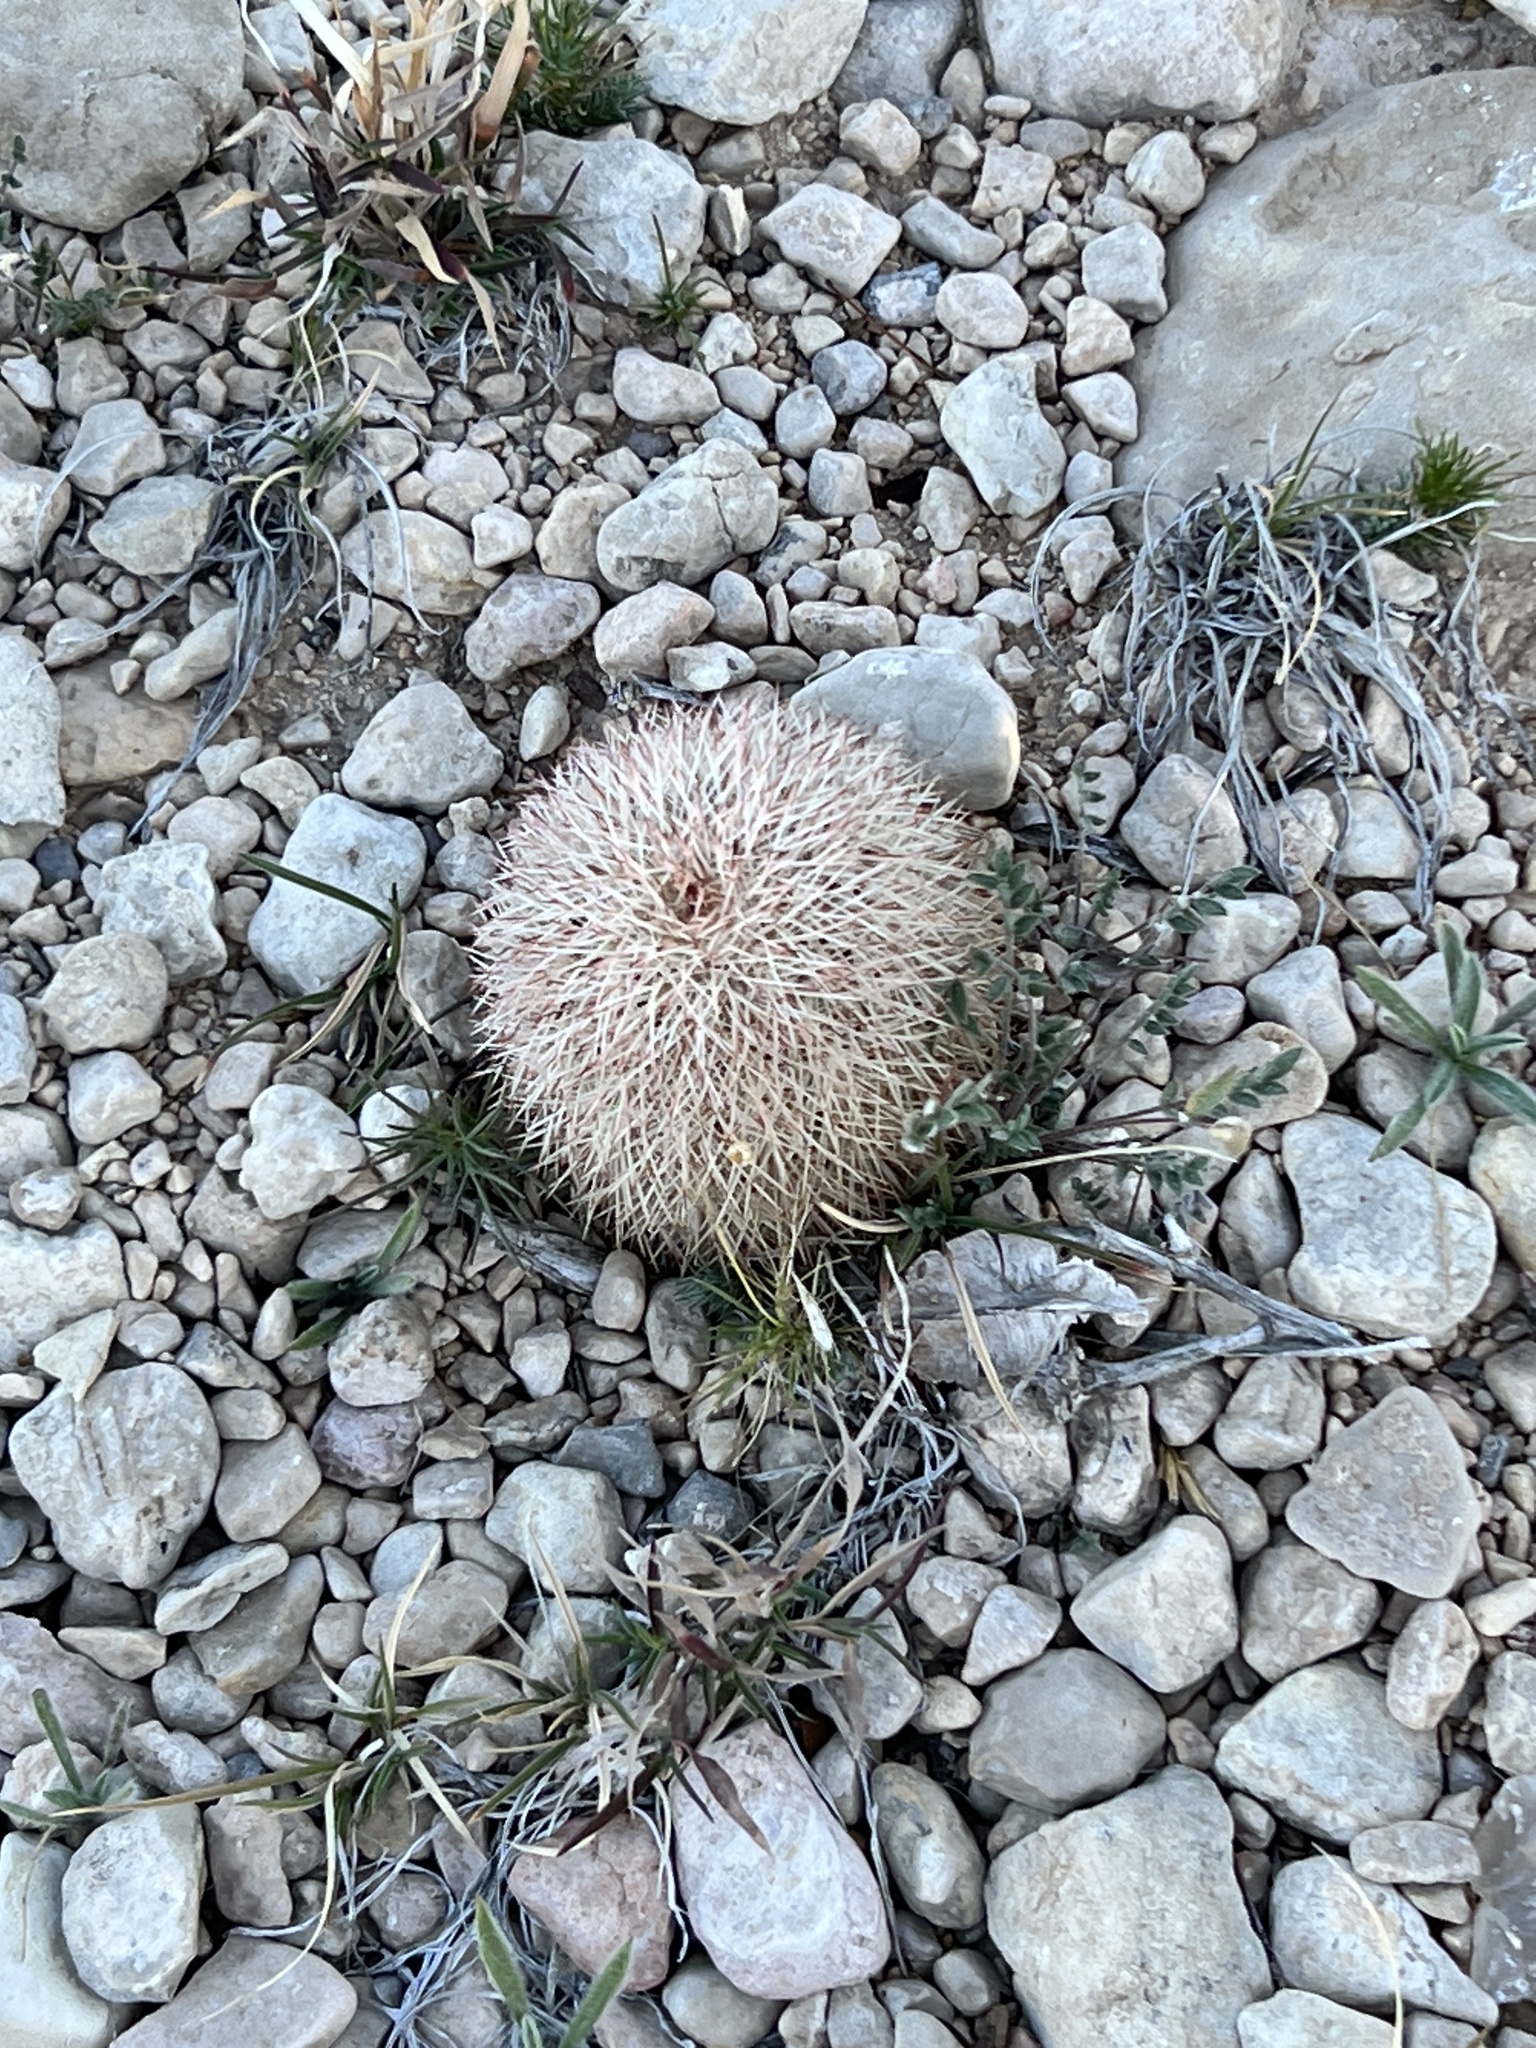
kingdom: Plantae
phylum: Tracheophyta
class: Magnoliopsida
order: Caryophyllales
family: Cactaceae
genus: Echinocereus
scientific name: Echinocereus dasyacanthus
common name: Spiny hedgehog cactus
